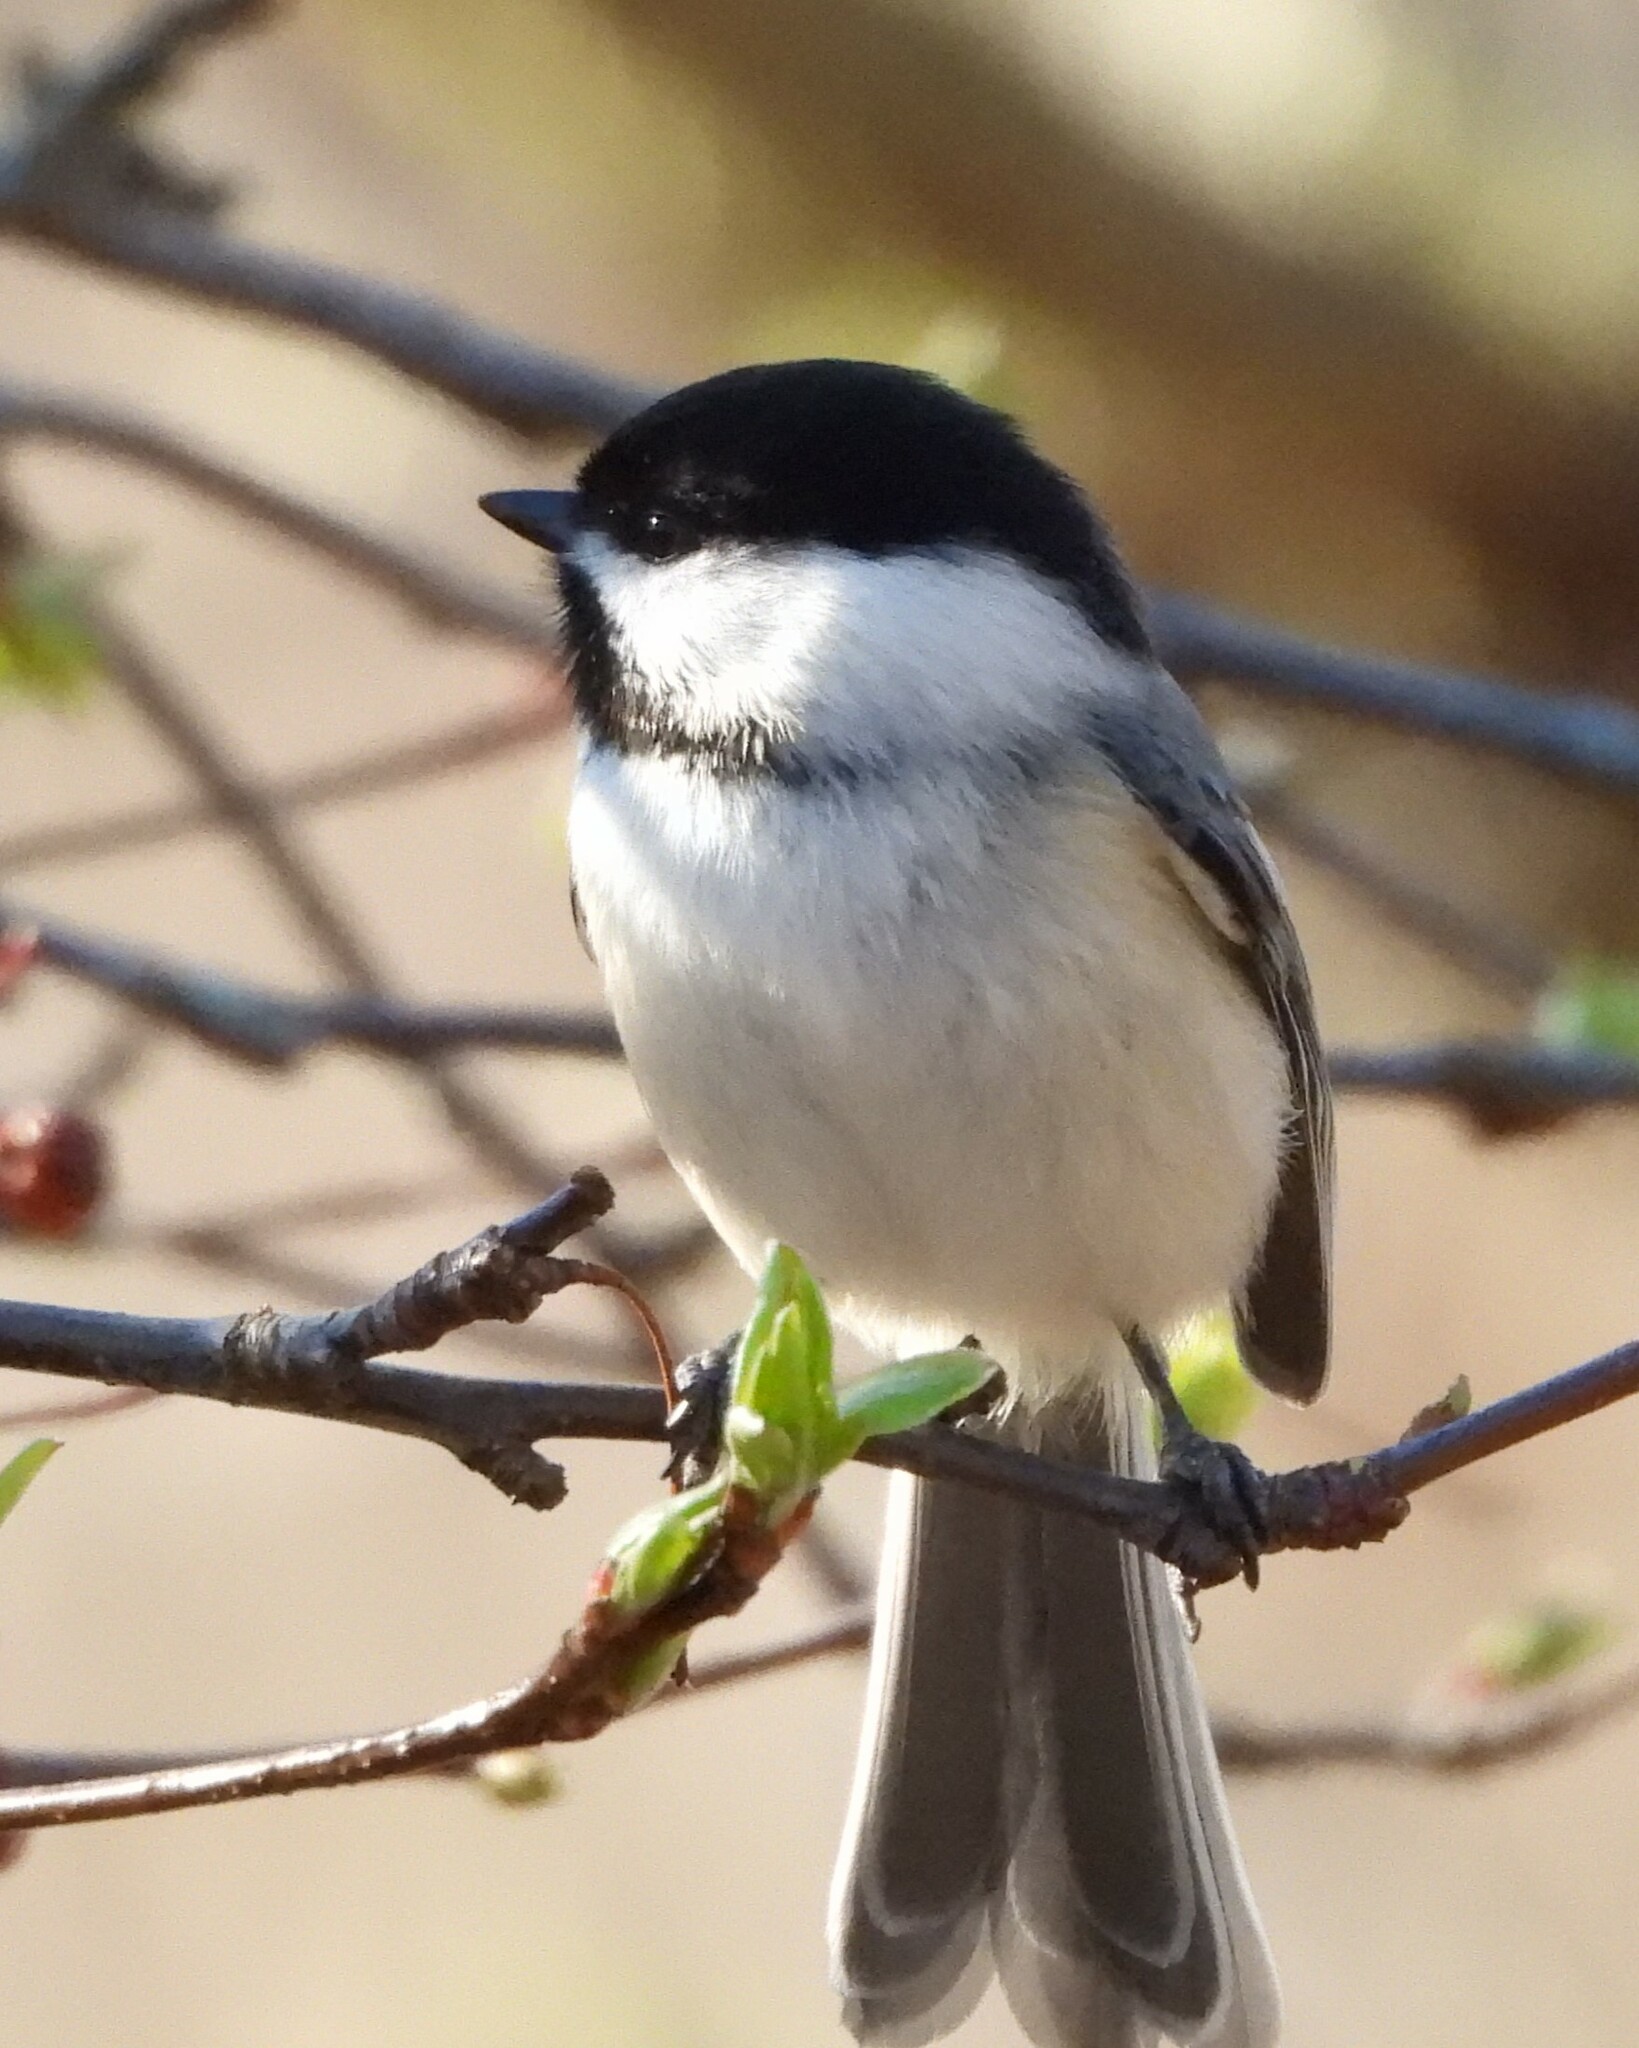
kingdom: Animalia
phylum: Chordata
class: Aves
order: Passeriformes
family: Paridae
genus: Poecile
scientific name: Poecile atricapillus
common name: Black-capped chickadee
